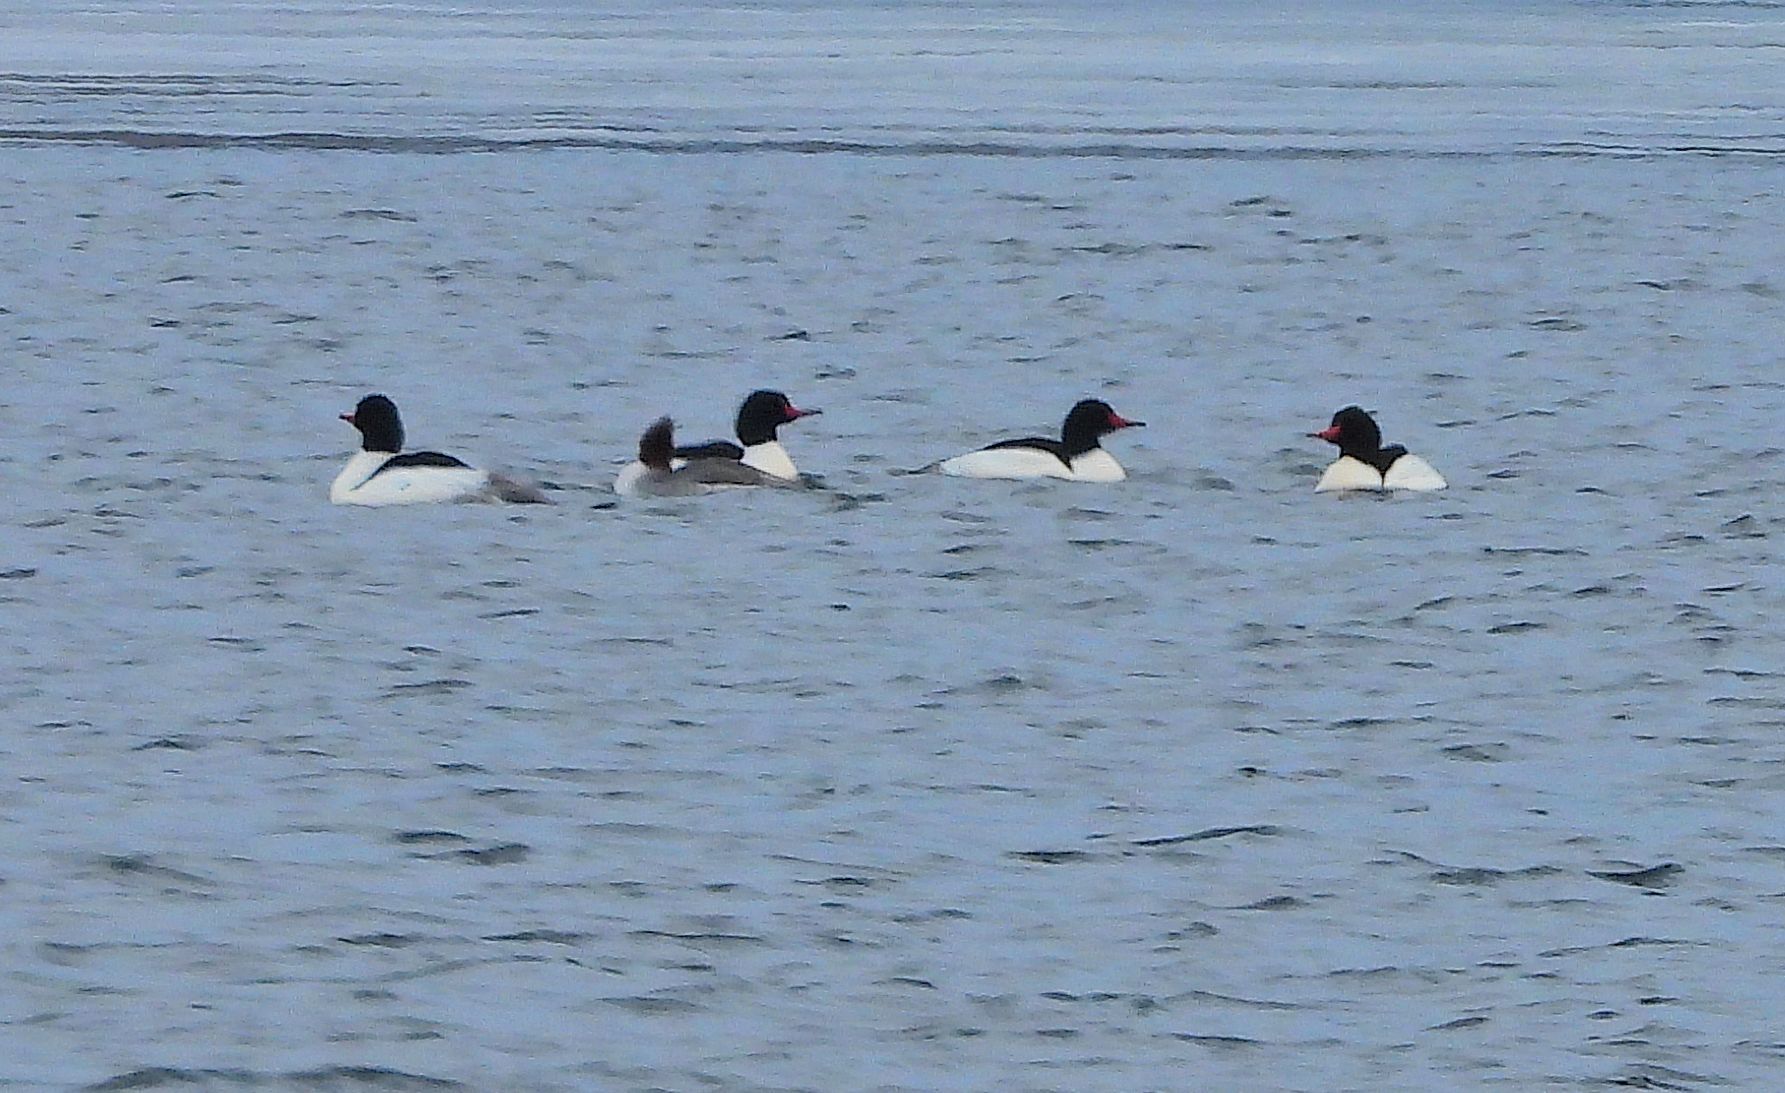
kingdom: Animalia
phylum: Chordata
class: Aves
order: Anseriformes
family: Anatidae
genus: Mergus
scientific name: Mergus merganser
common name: Common merganser
